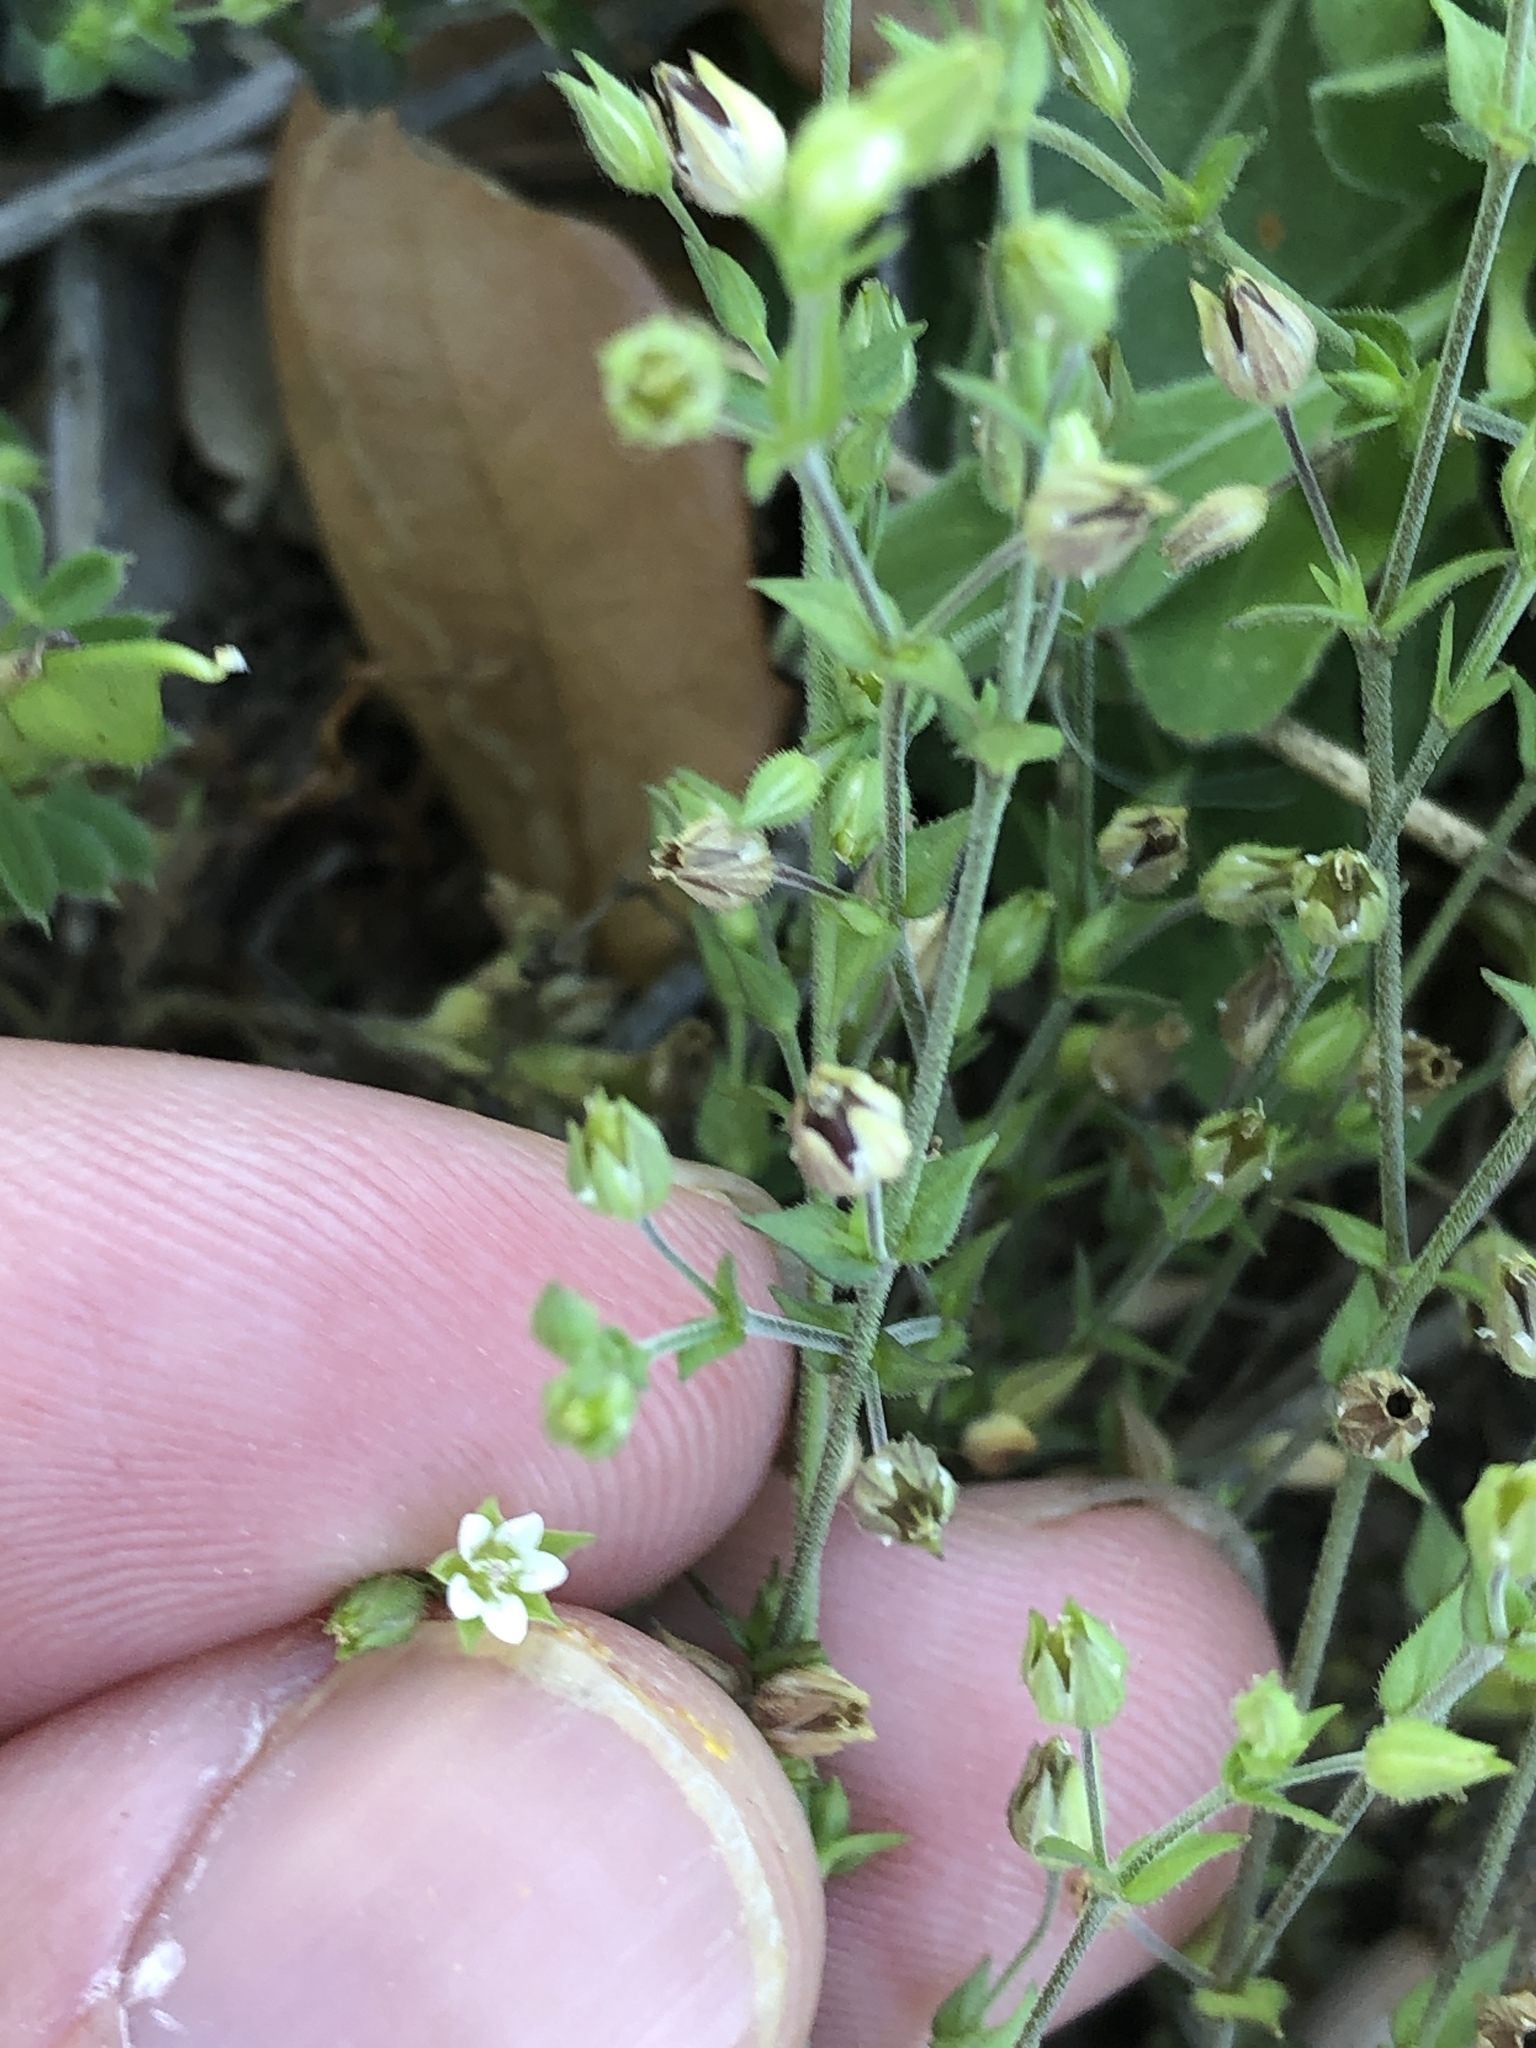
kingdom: Plantae
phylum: Tracheophyta
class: Magnoliopsida
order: Caryophyllales
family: Caryophyllaceae
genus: Arenaria
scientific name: Arenaria serpyllifolia
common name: Thyme-leaved sandwort
